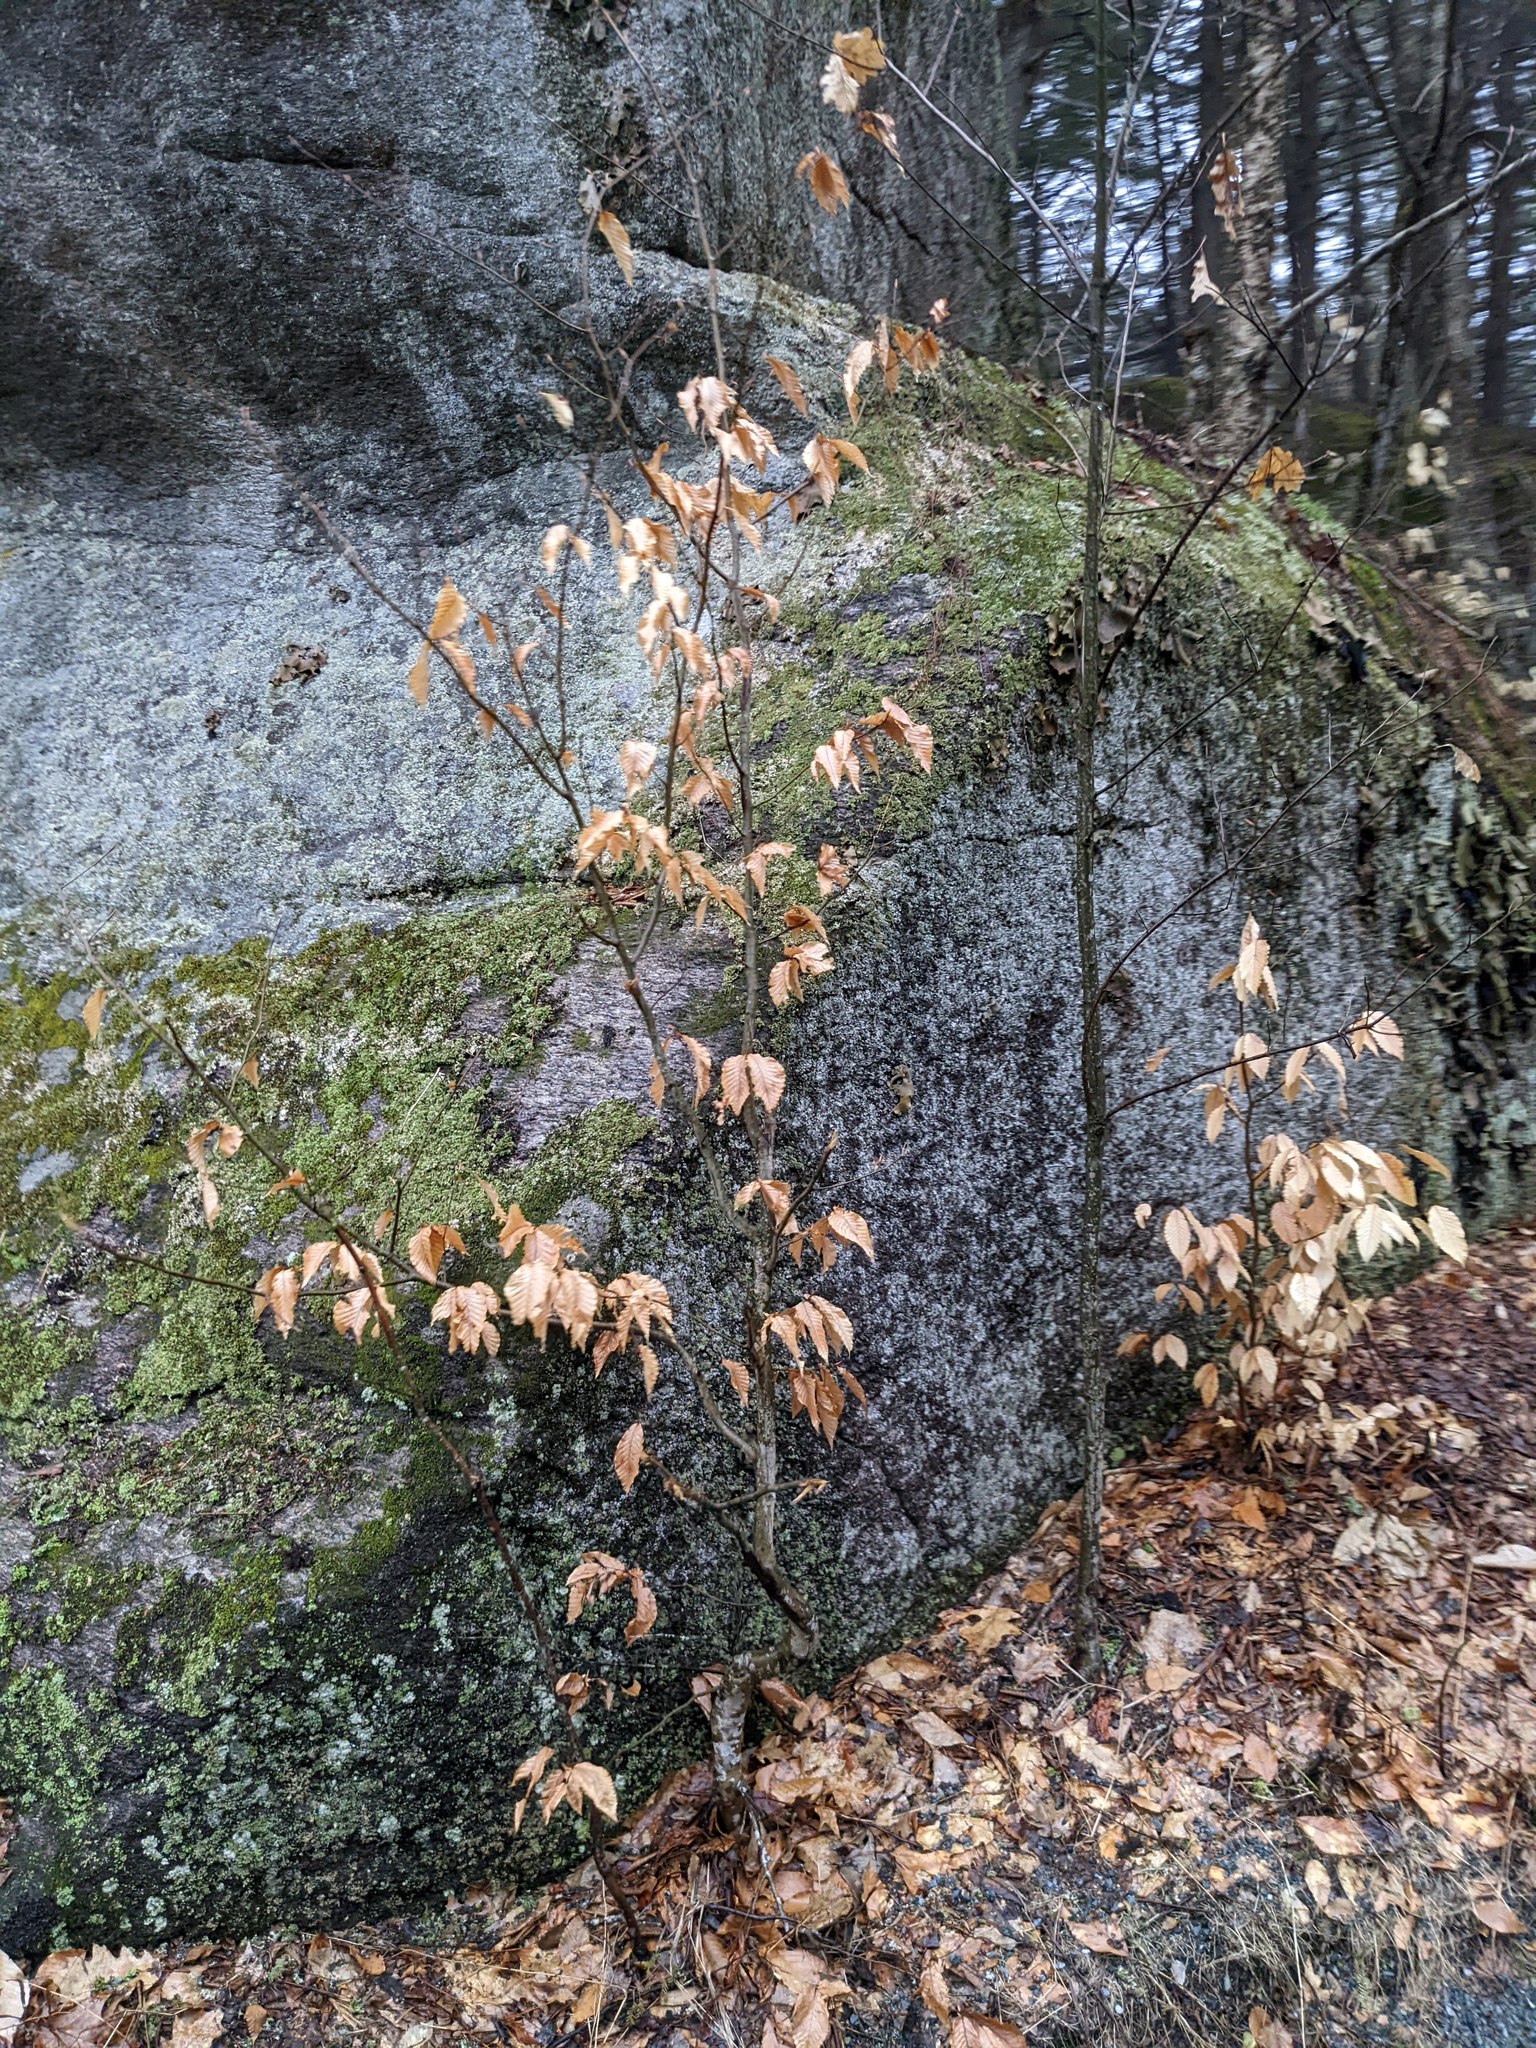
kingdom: Plantae
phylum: Tracheophyta
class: Magnoliopsida
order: Fagales
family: Fagaceae
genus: Fagus
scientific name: Fagus grandifolia
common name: American beech
